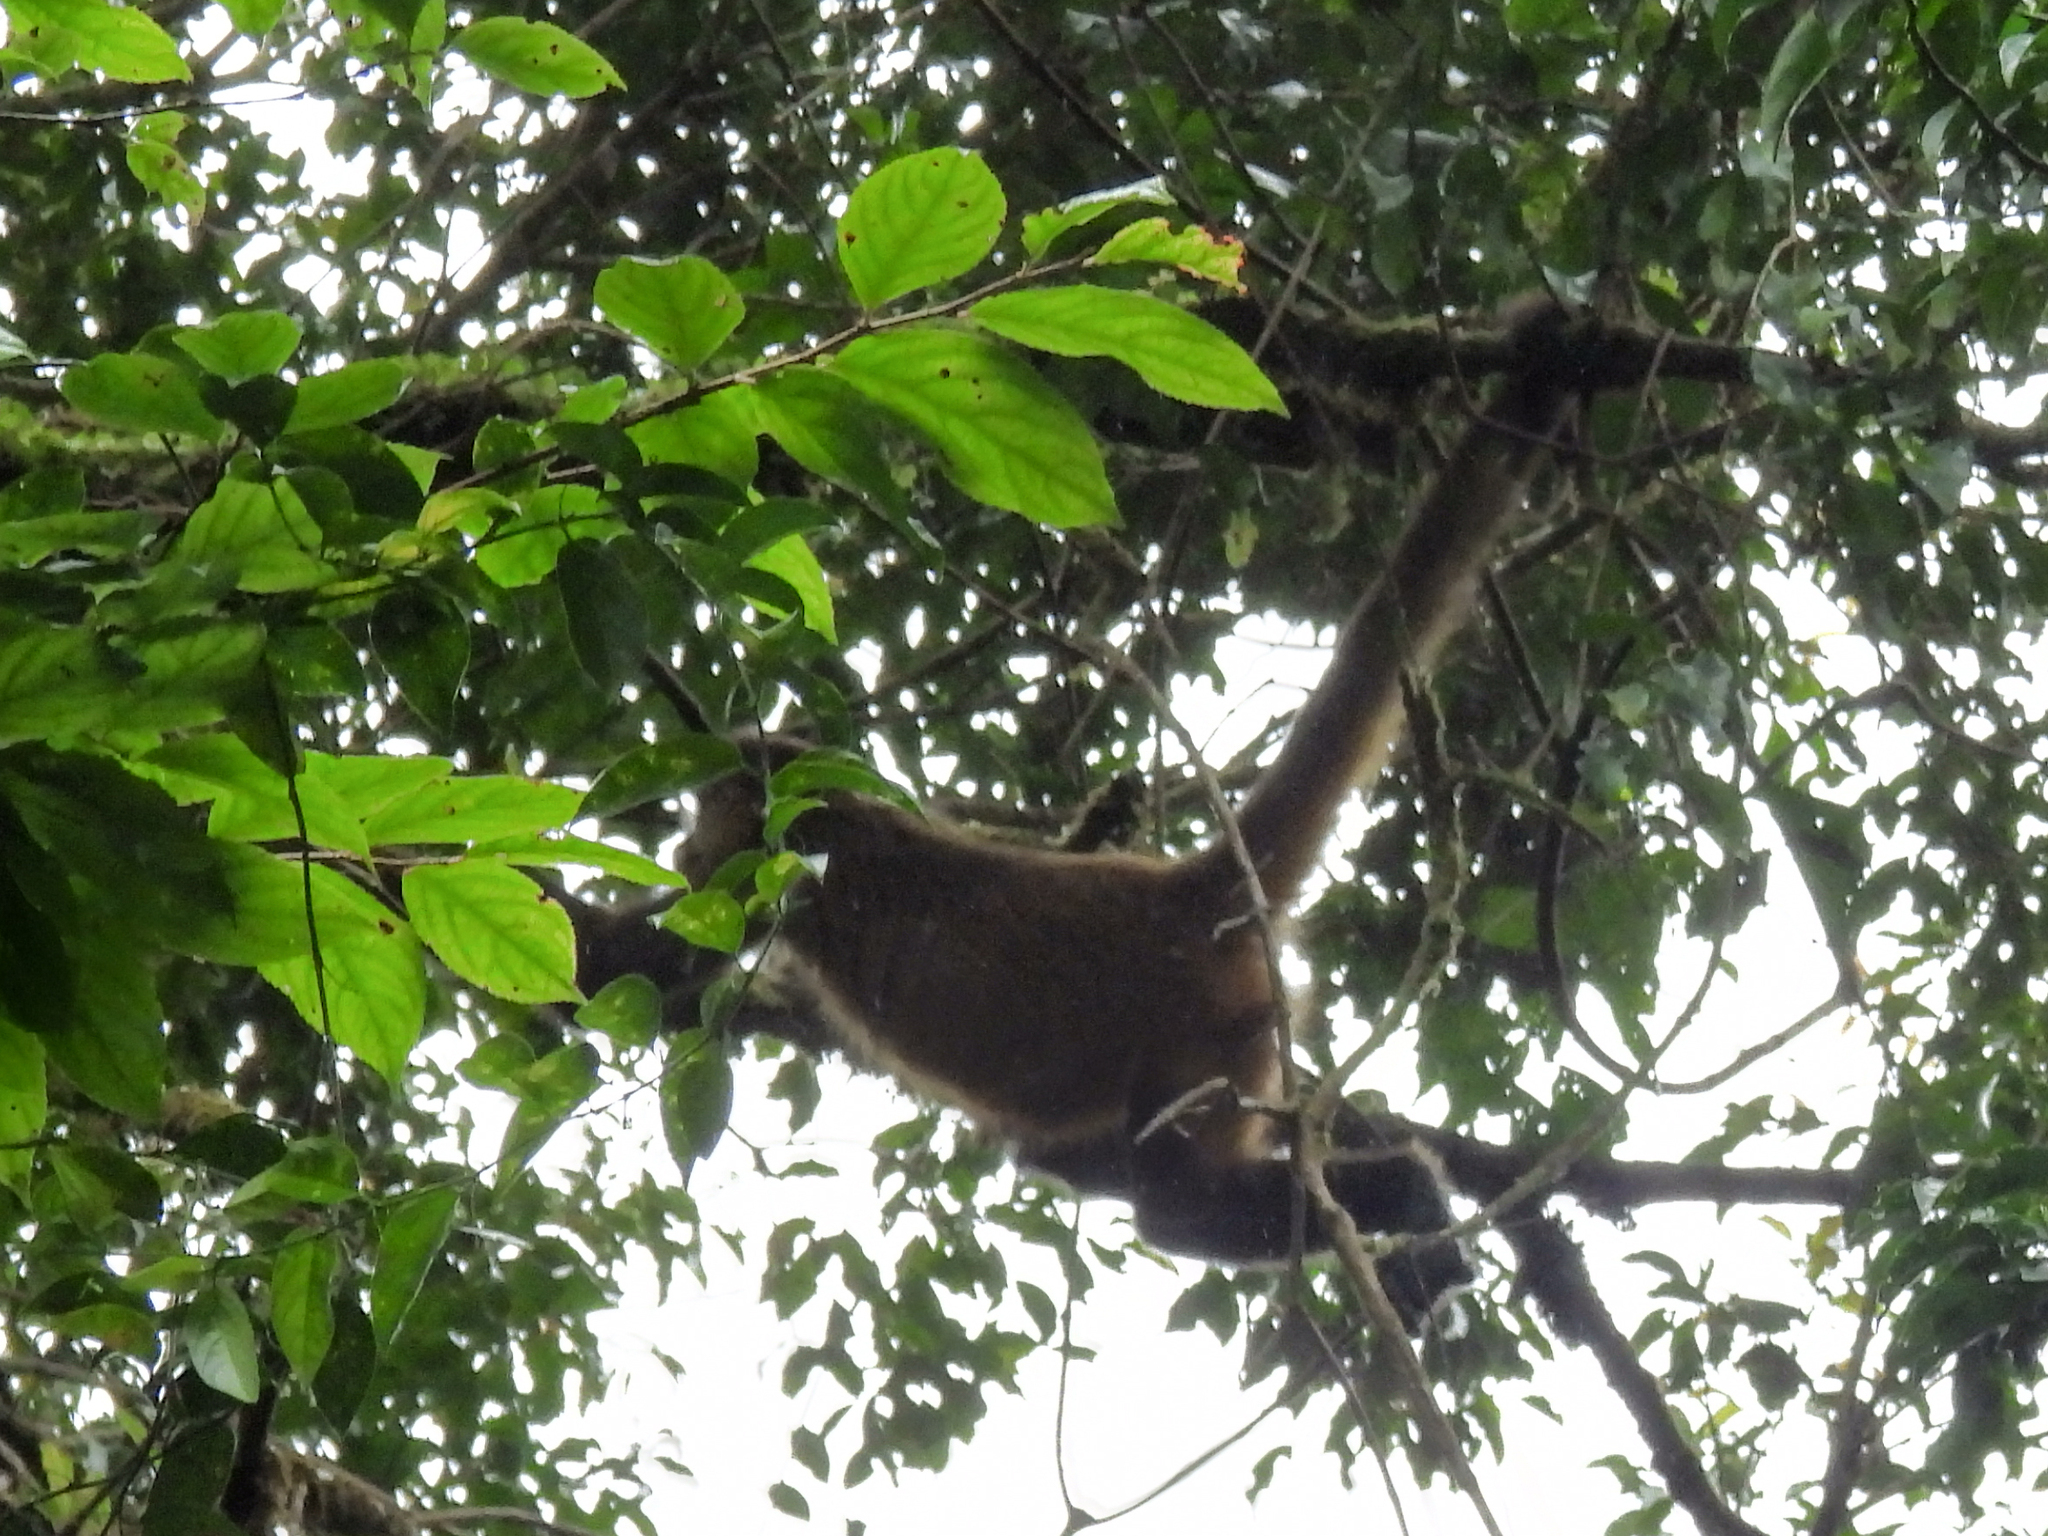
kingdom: Animalia
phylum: Chordata
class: Mammalia
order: Primates
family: Atelidae
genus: Ateles
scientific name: Ateles geoffroyi
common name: Black-handed spider monkey
